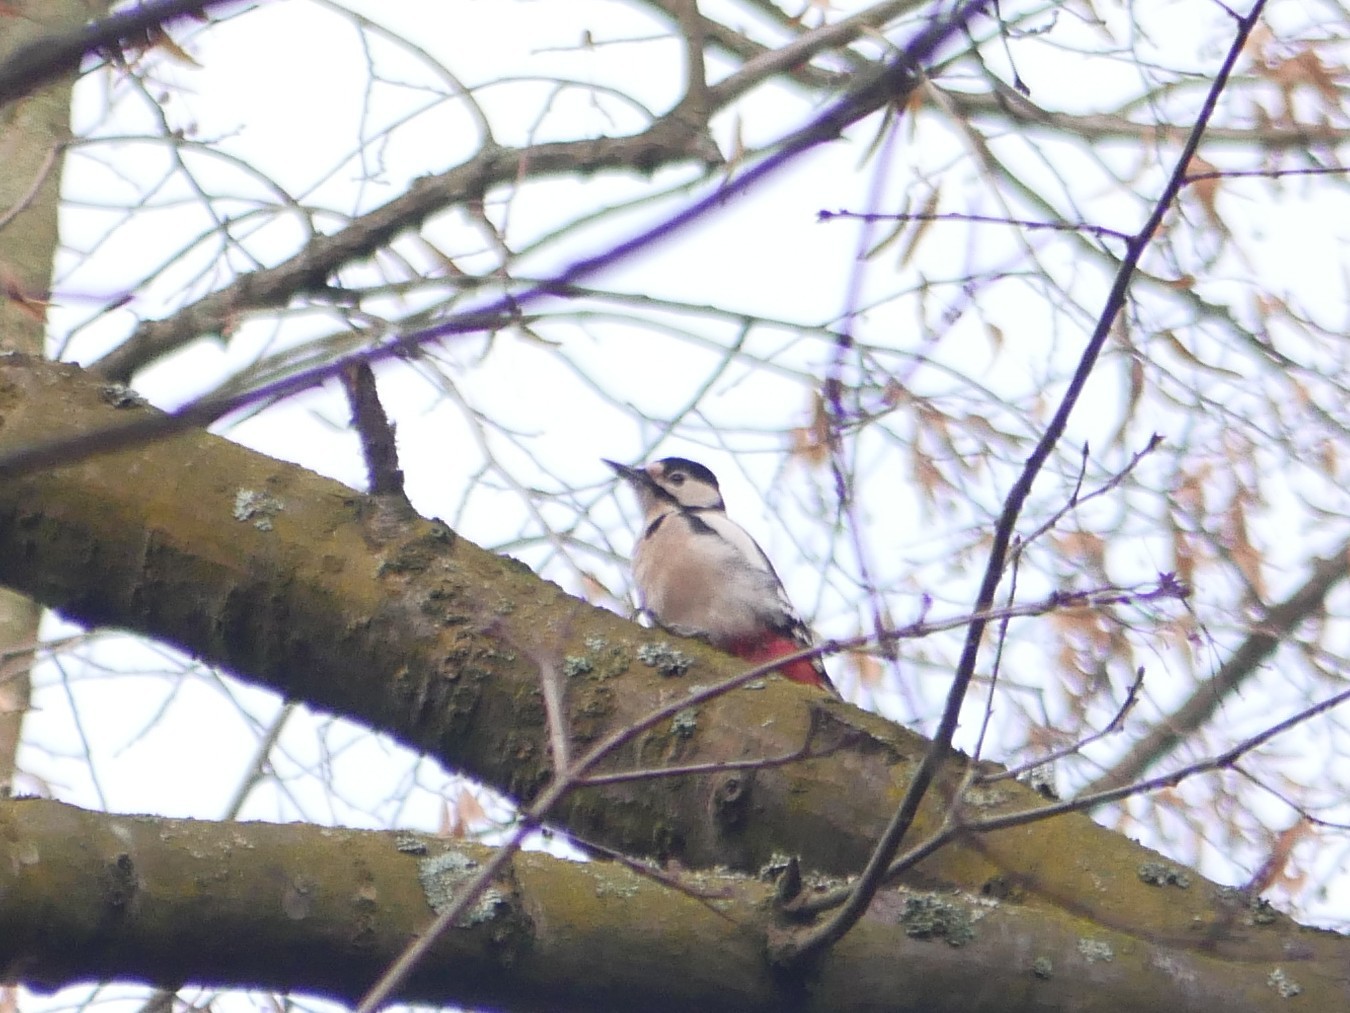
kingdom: Animalia
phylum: Chordata
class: Aves
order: Piciformes
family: Picidae
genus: Dendrocopos
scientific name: Dendrocopos major
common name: Great spotted woodpecker
